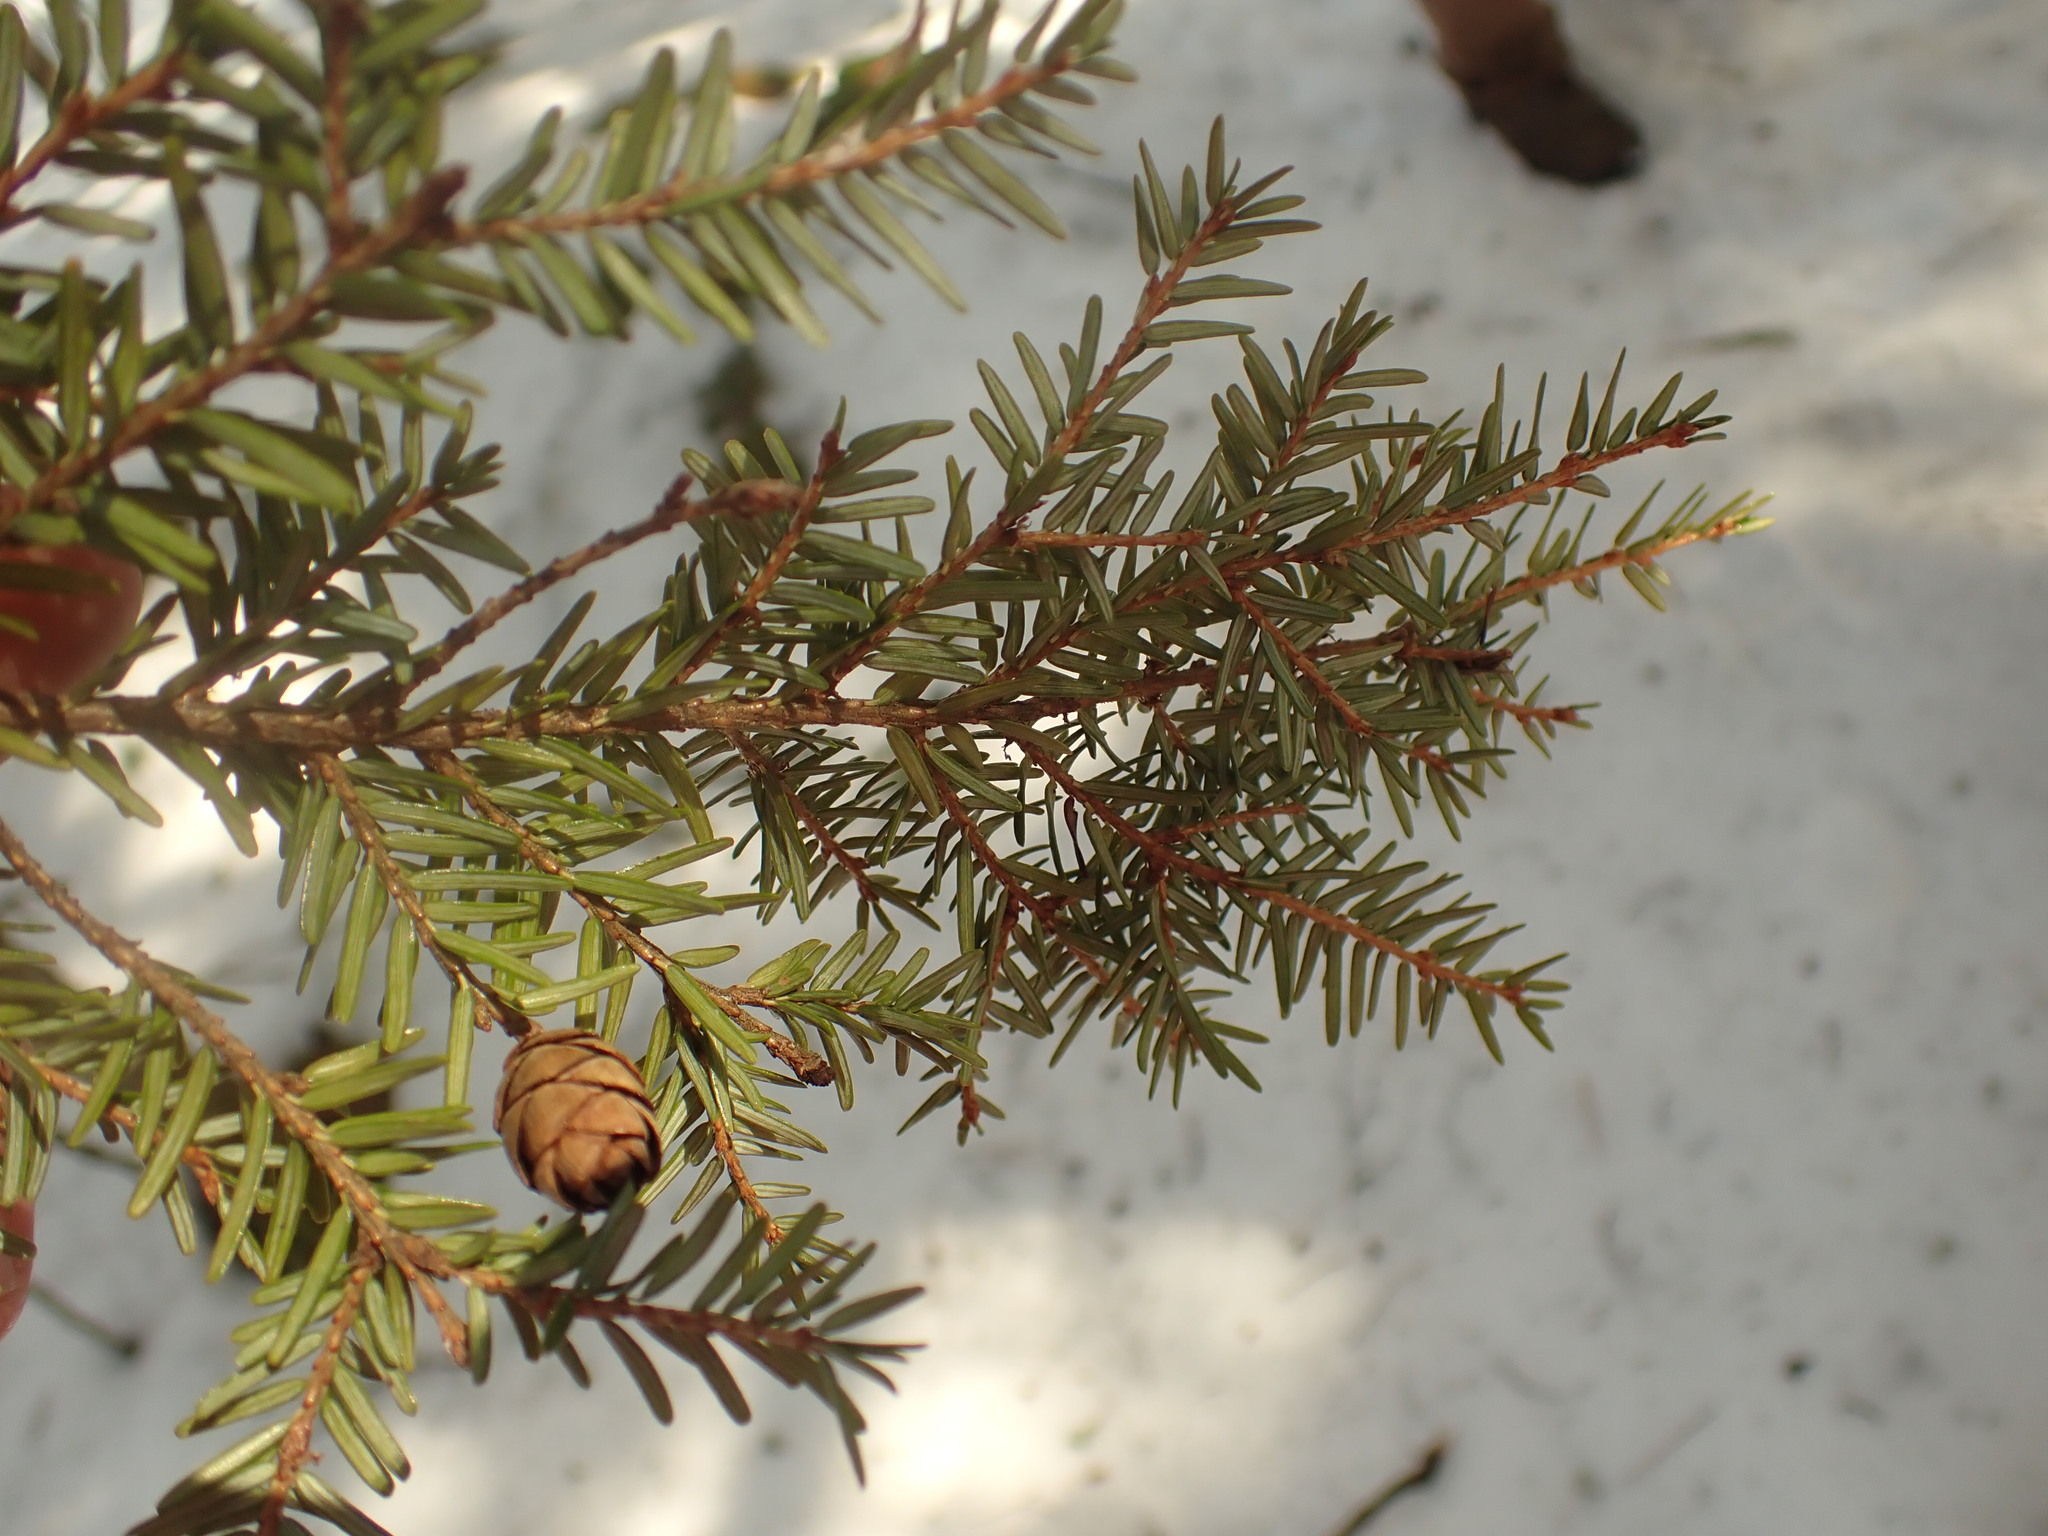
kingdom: Plantae
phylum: Tracheophyta
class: Pinopsida
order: Pinales
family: Pinaceae
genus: Tsuga
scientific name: Tsuga canadensis
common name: Eastern hemlock
